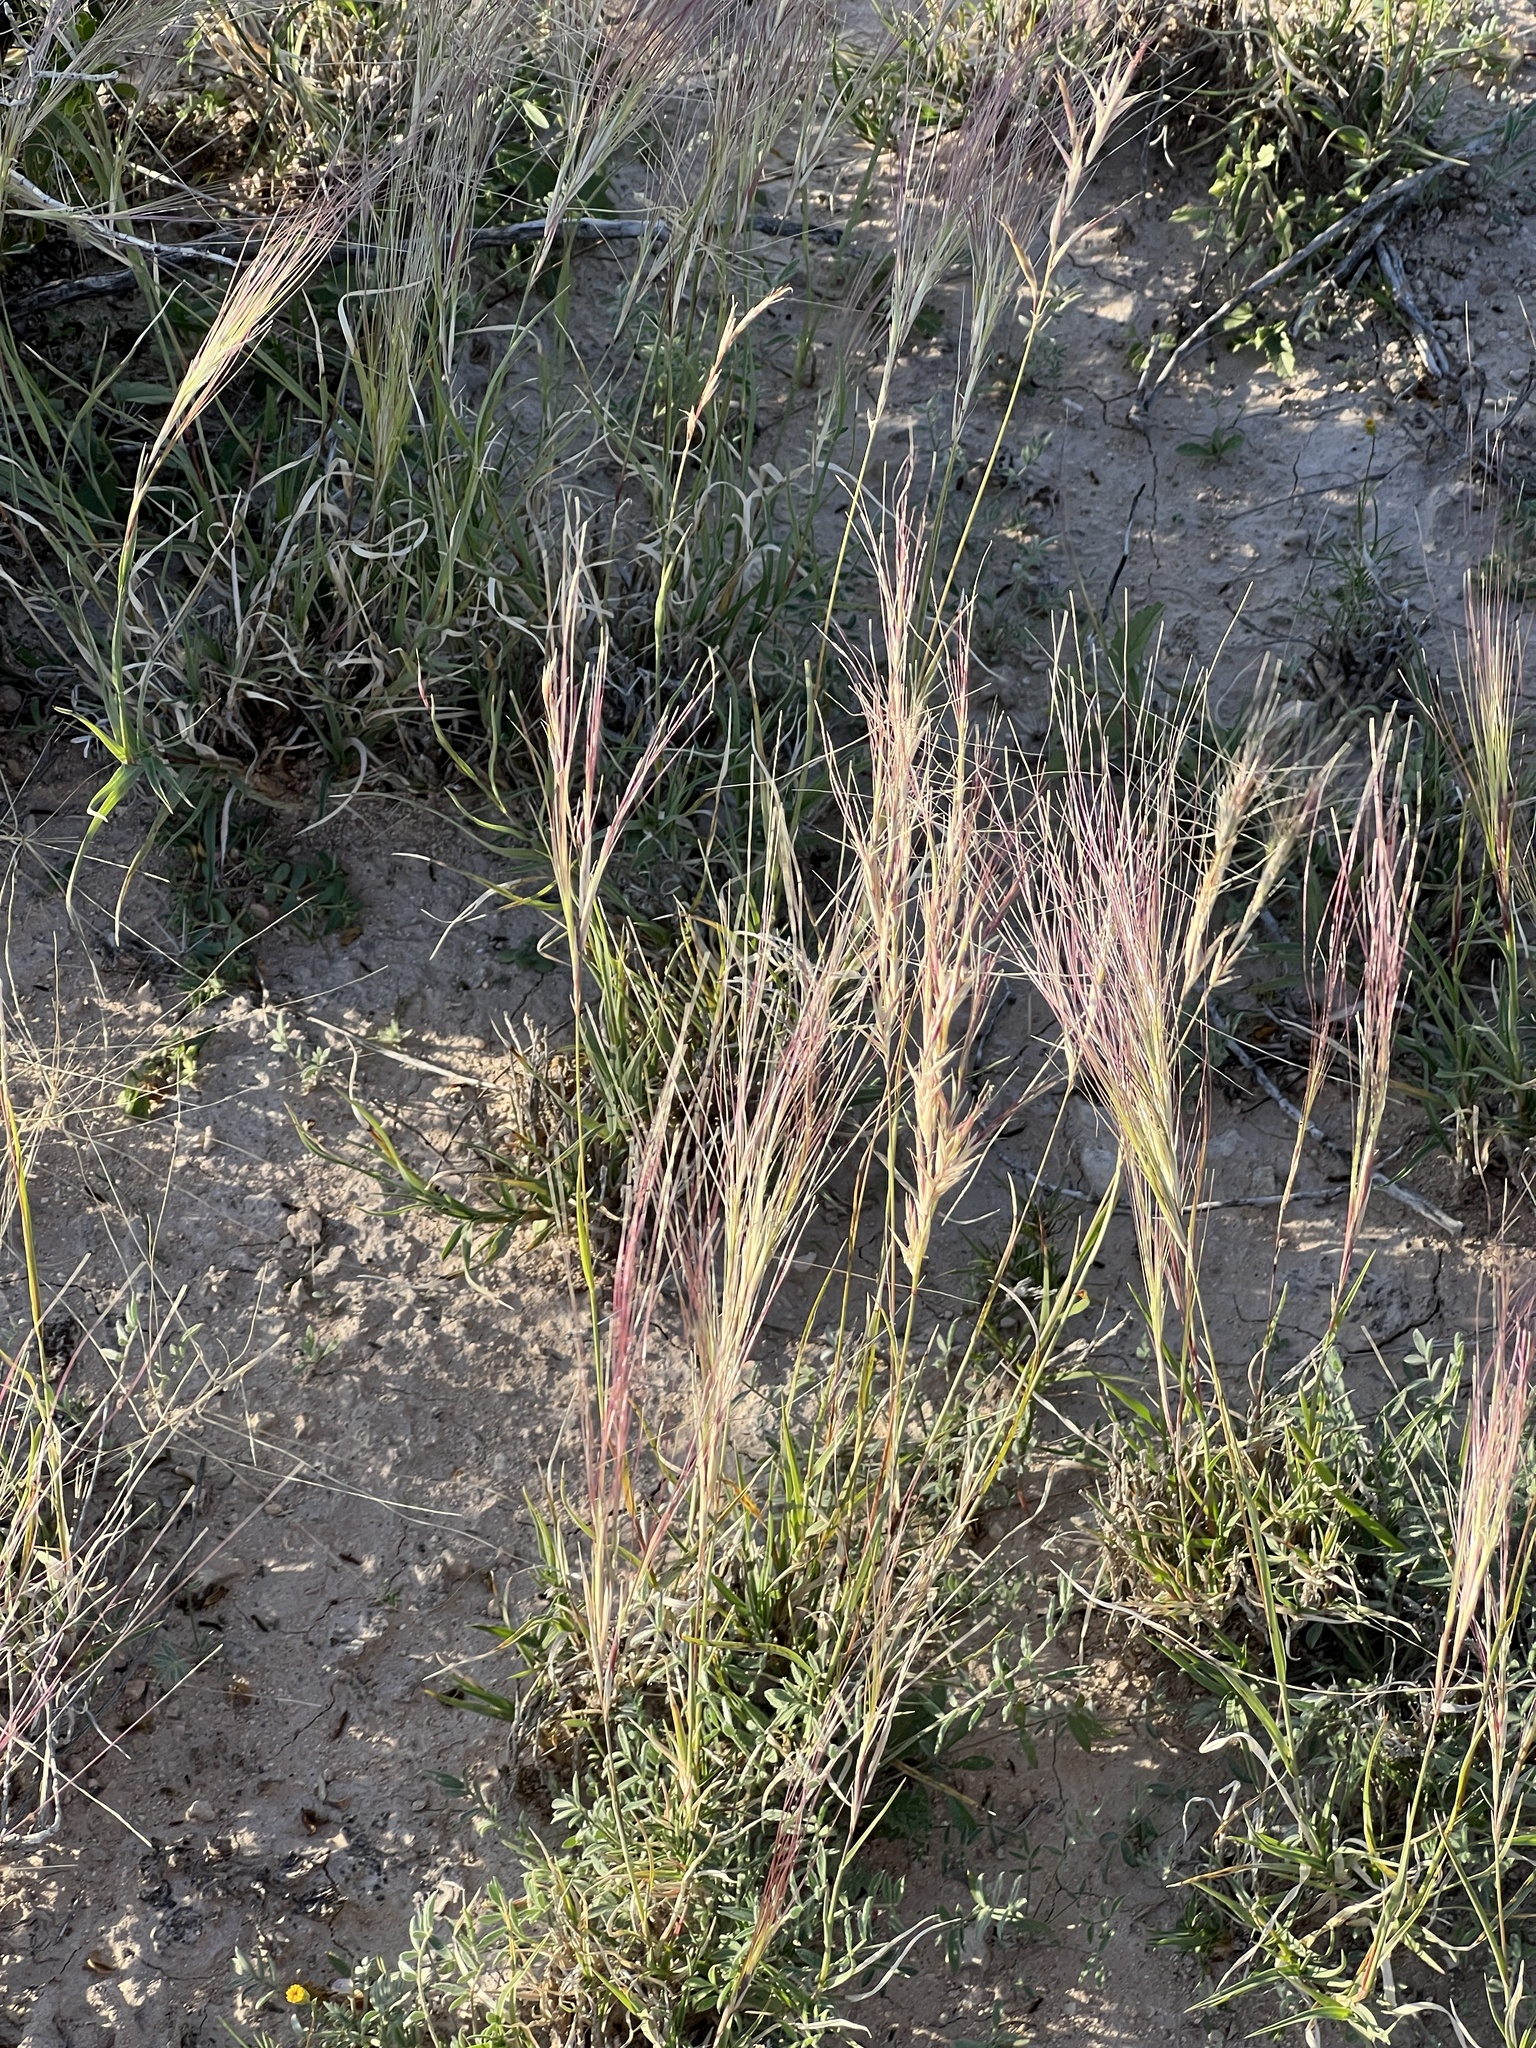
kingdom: Plantae
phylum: Tracheophyta
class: Liliopsida
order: Poales
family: Poaceae
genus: Scleropogon
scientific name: Scleropogon brevifolius
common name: Burro grass
